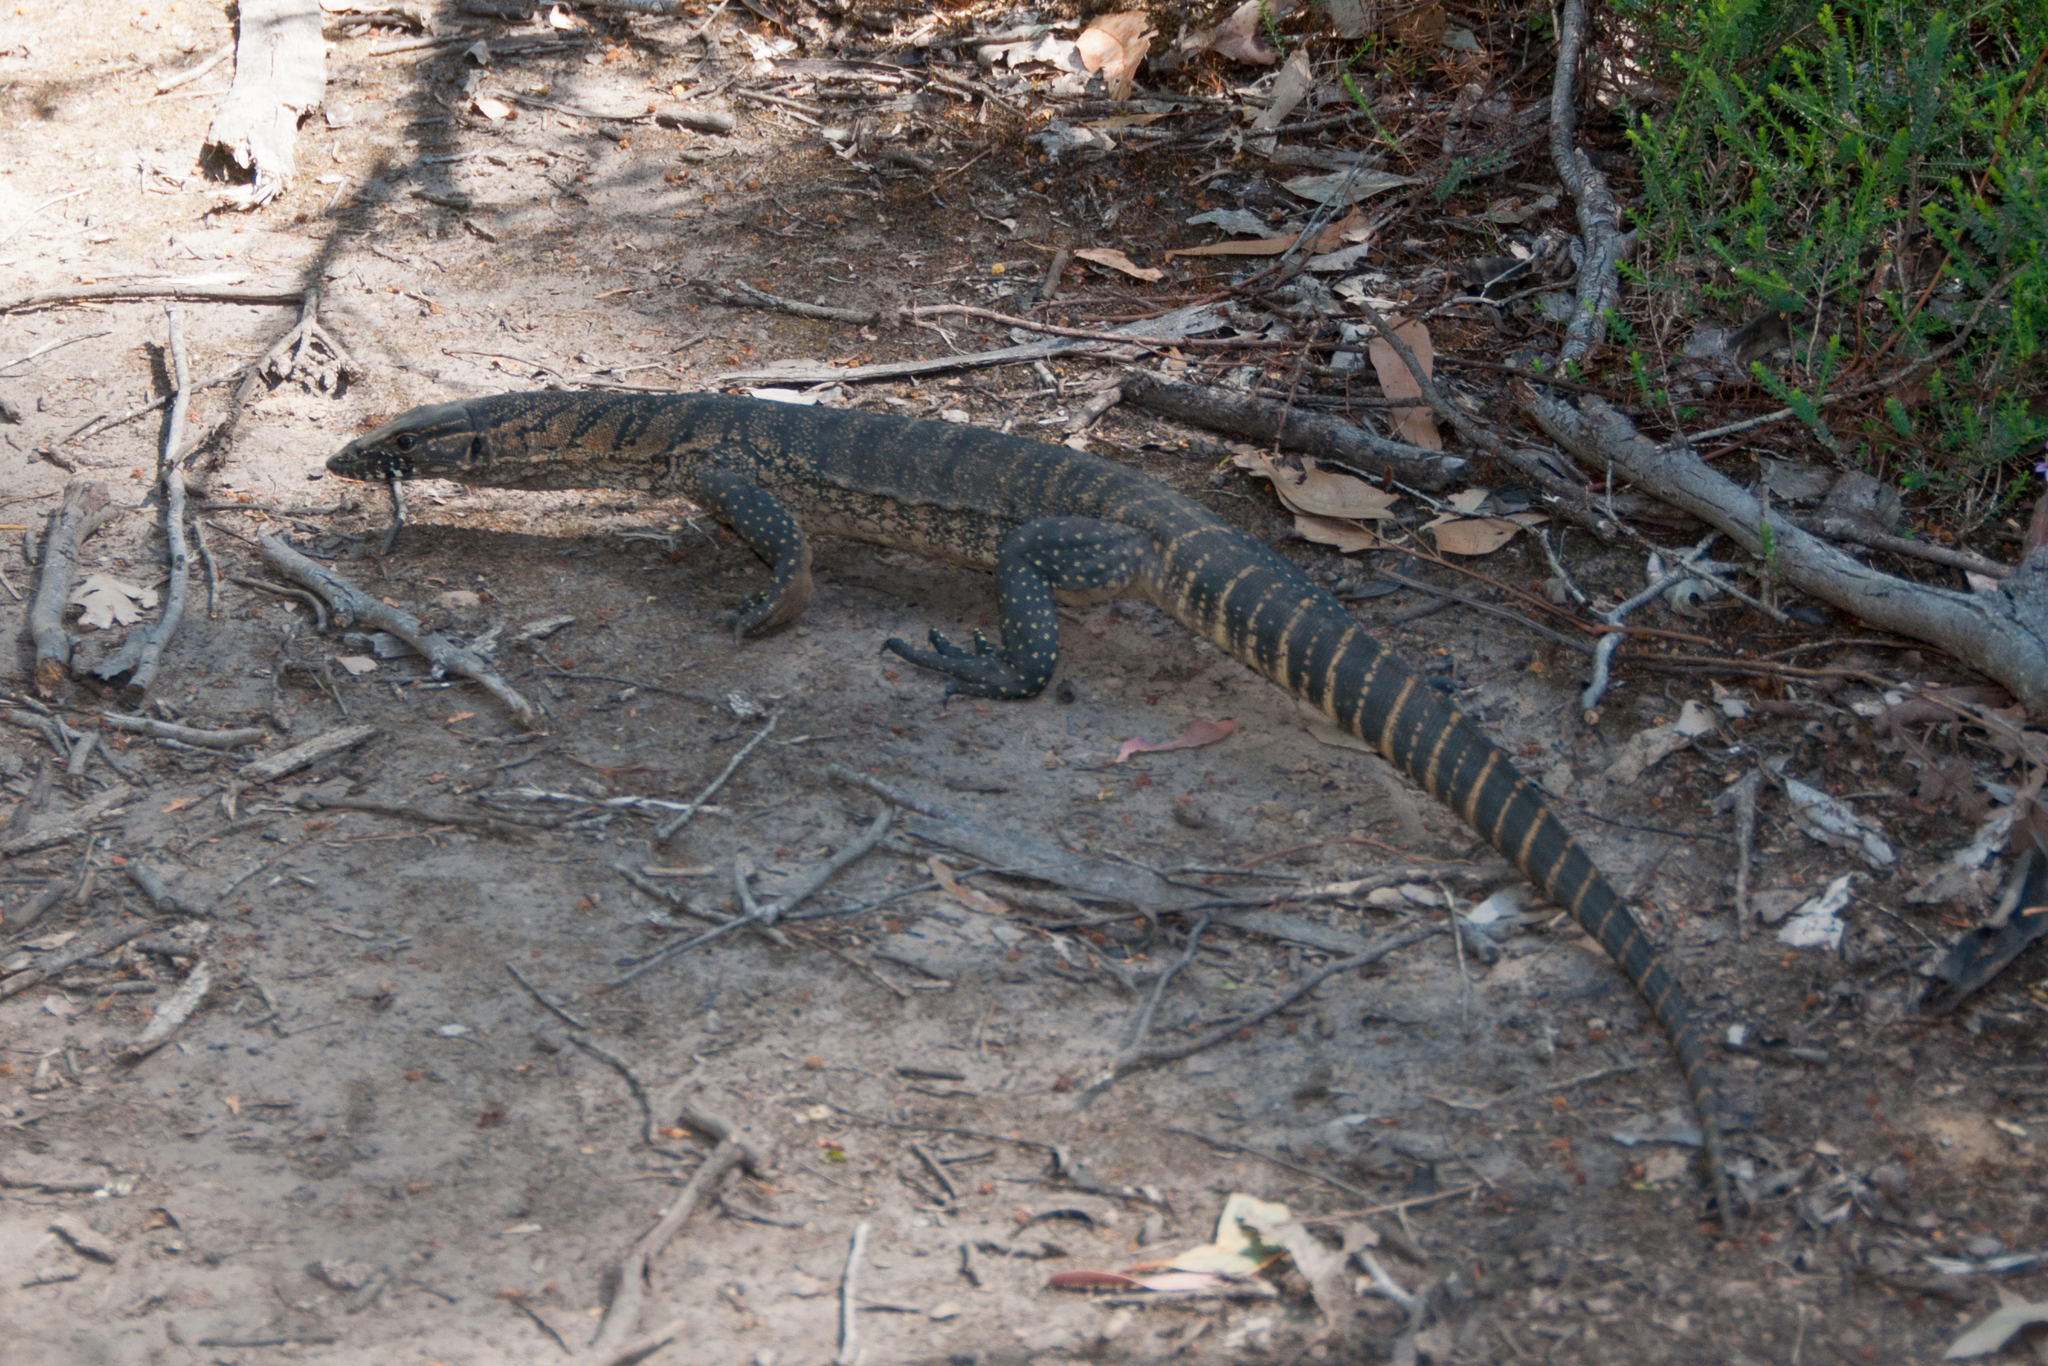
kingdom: Animalia
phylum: Chordata
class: Squamata
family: Varanidae
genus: Varanus
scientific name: Varanus rosenbergi
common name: Heath monitor
